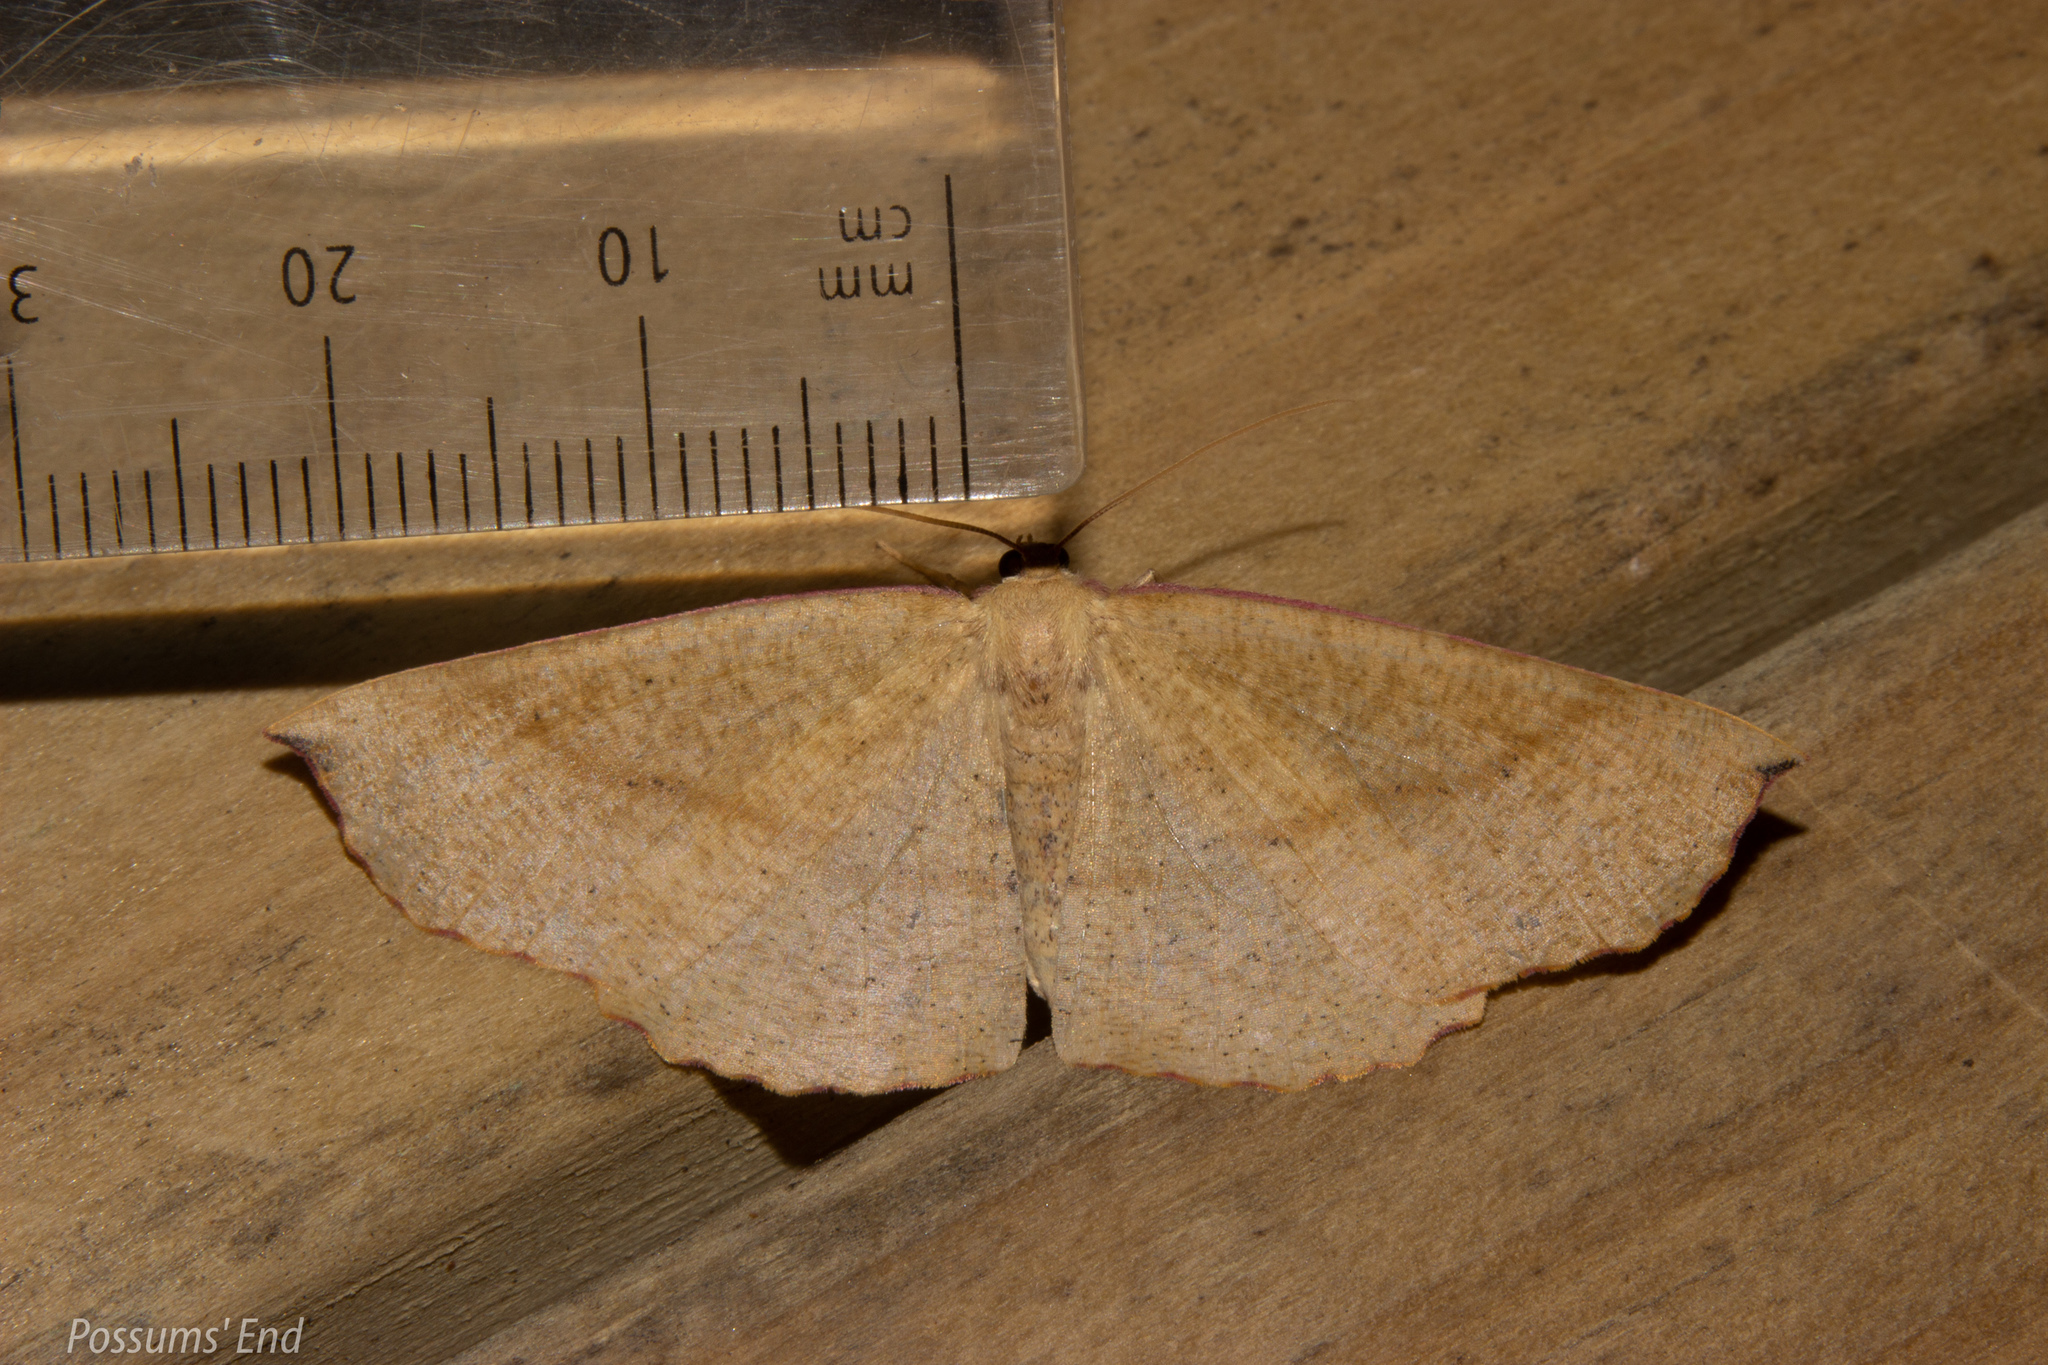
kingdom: Animalia
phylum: Arthropoda
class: Insecta
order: Lepidoptera
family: Geometridae
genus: Xyridacma
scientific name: Xyridacma alectoraria
